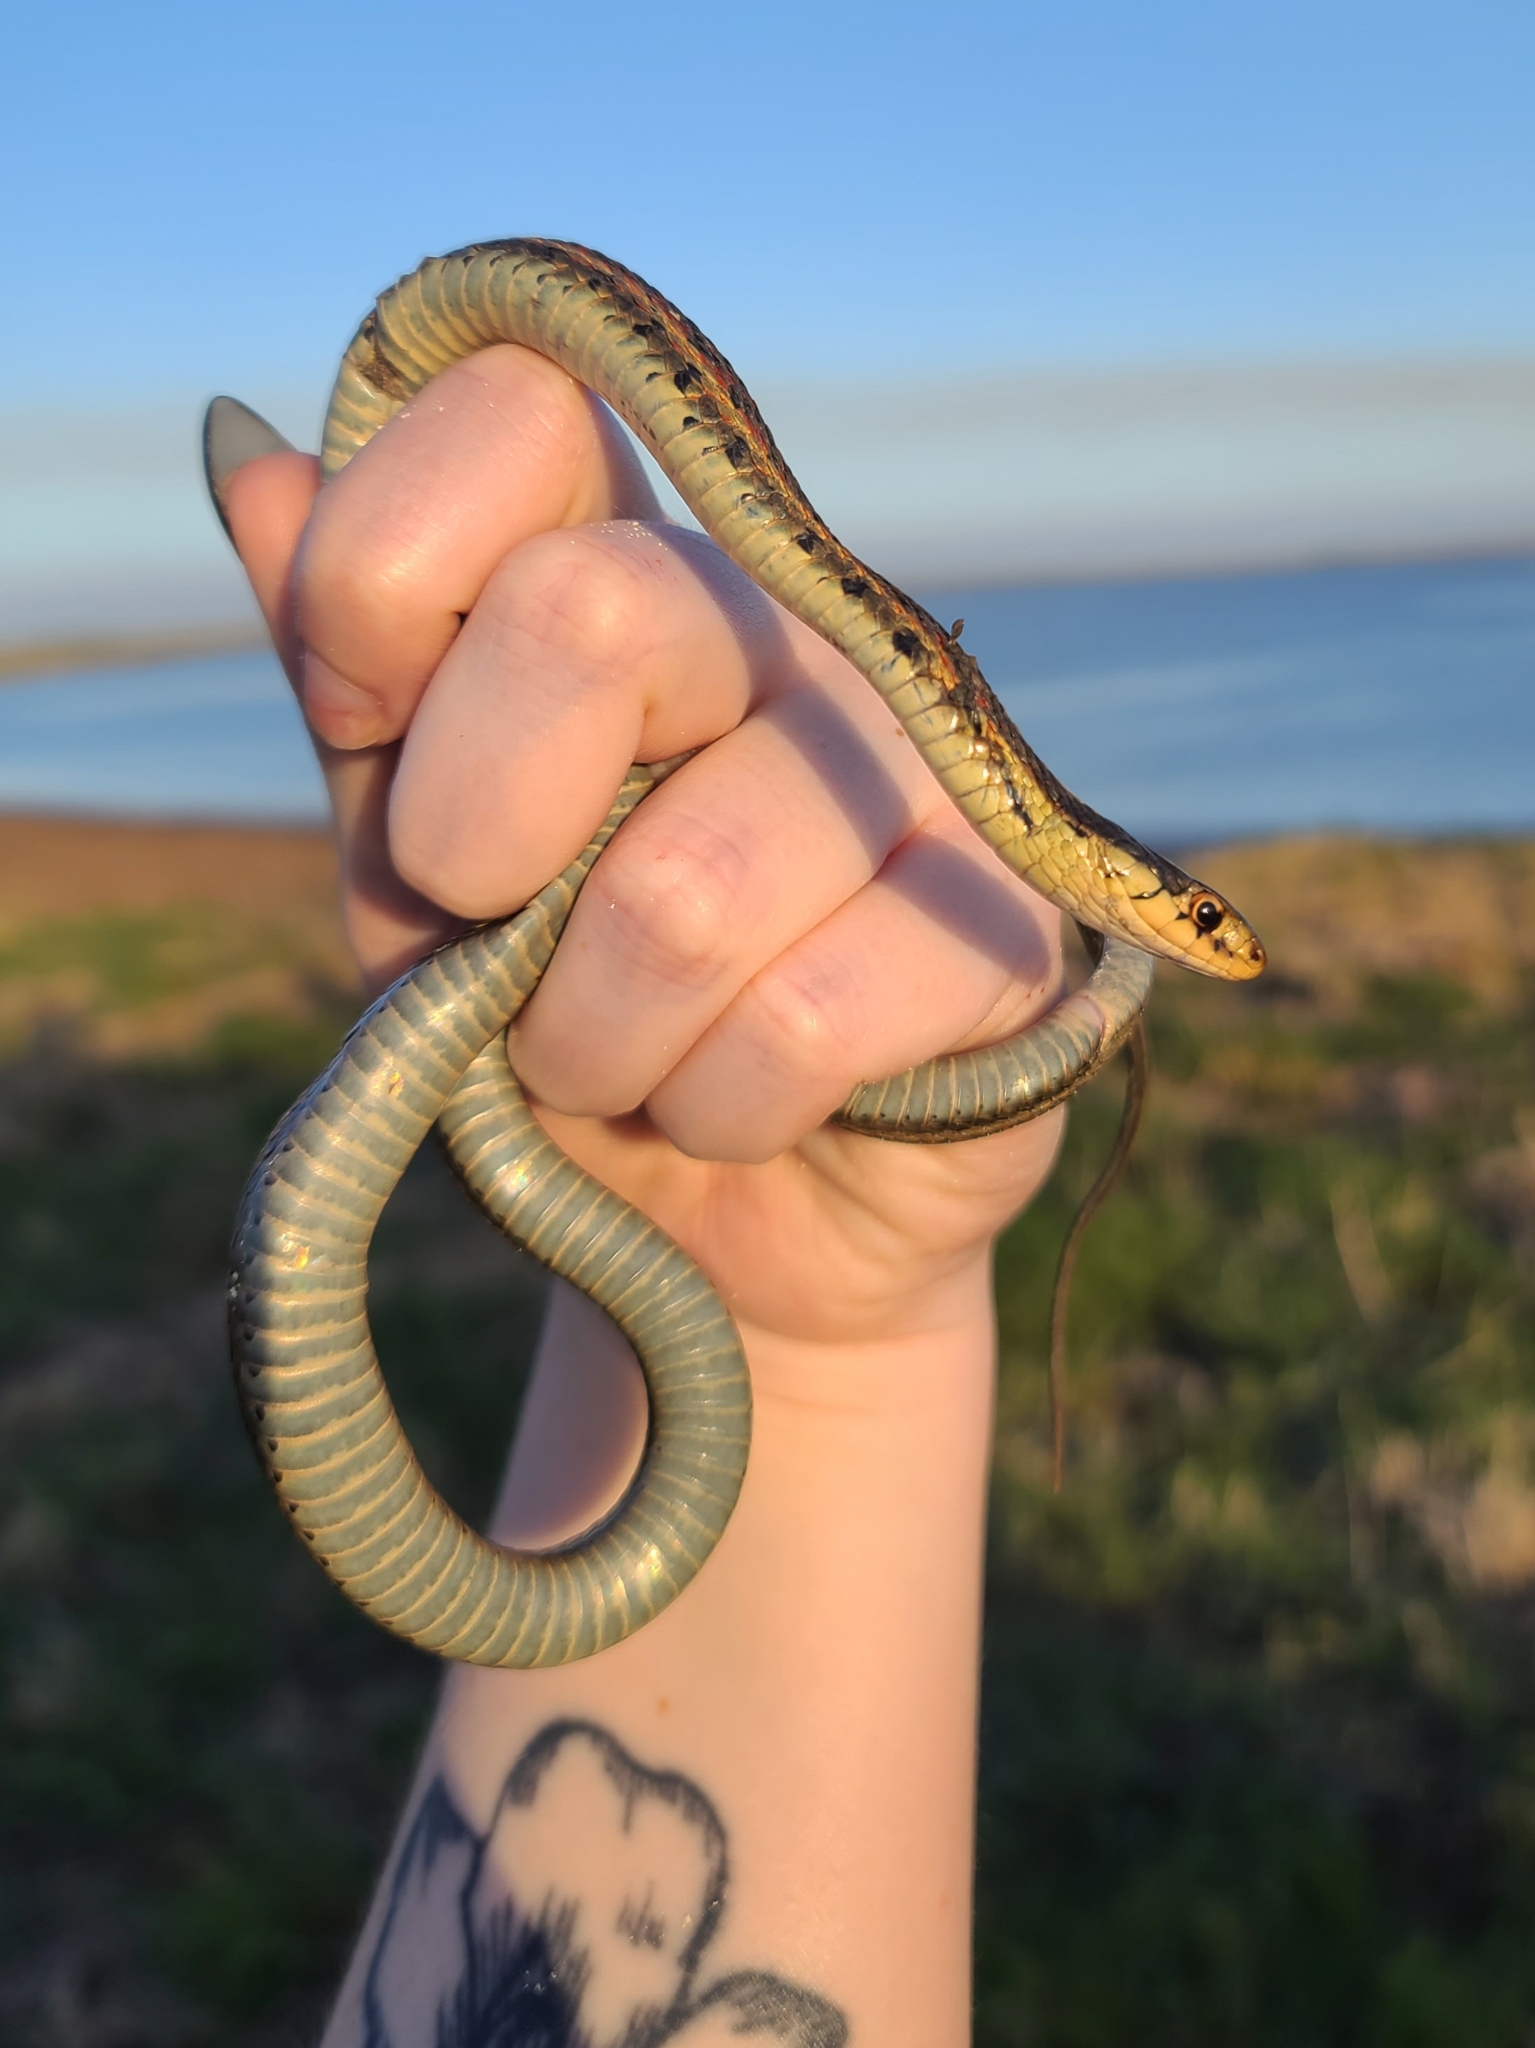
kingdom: Animalia
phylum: Chordata
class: Squamata
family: Colubridae
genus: Thamnophis
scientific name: Thamnophis sirtalis
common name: Common garter snake
